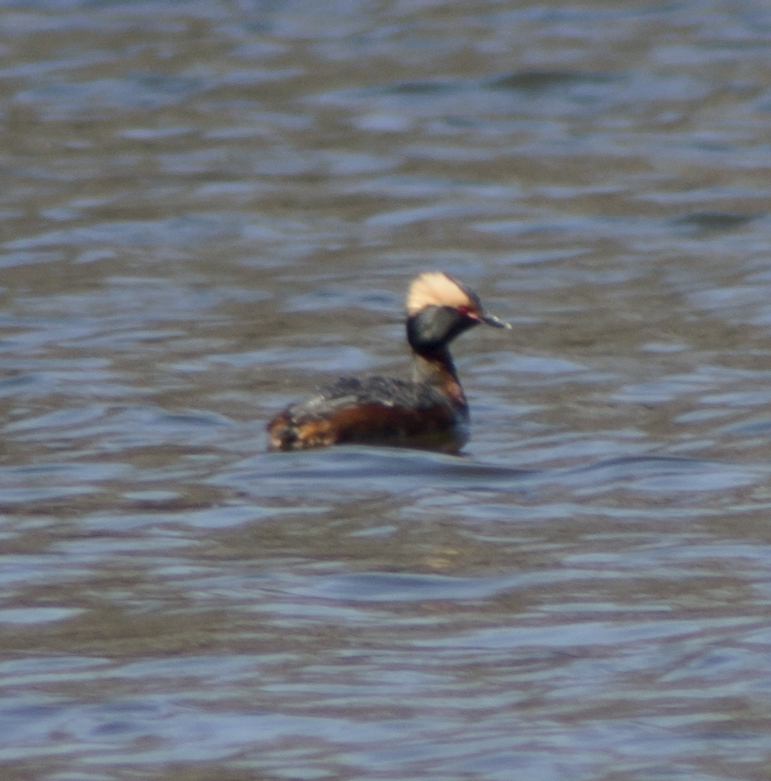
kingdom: Animalia
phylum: Chordata
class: Aves
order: Podicipediformes
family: Podicipedidae
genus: Podiceps
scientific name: Podiceps auritus
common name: Horned grebe
